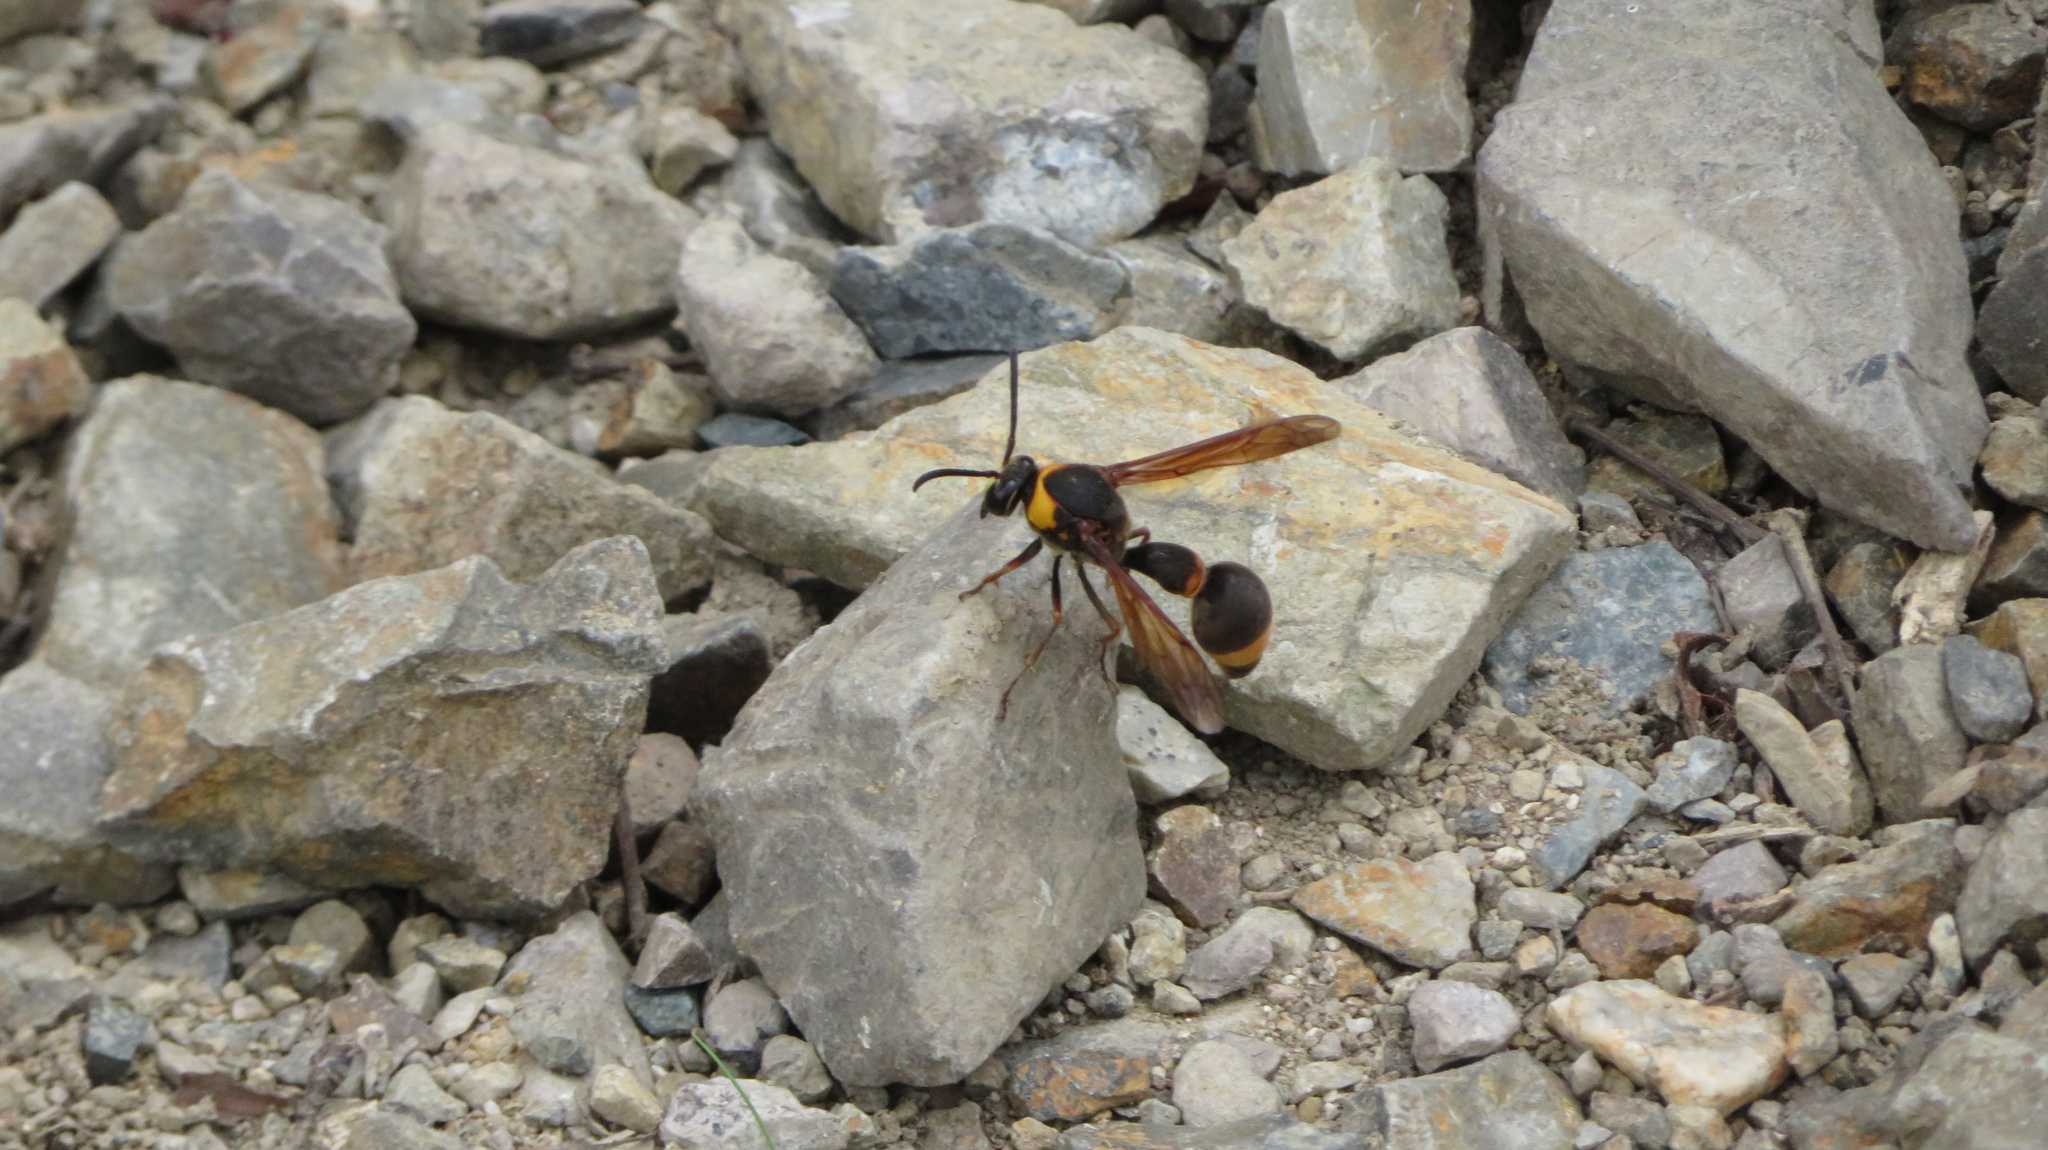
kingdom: Animalia
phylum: Arthropoda
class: Insecta
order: Hymenoptera
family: Eumenidae
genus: Oreumenes
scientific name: Oreumenes decoratus
